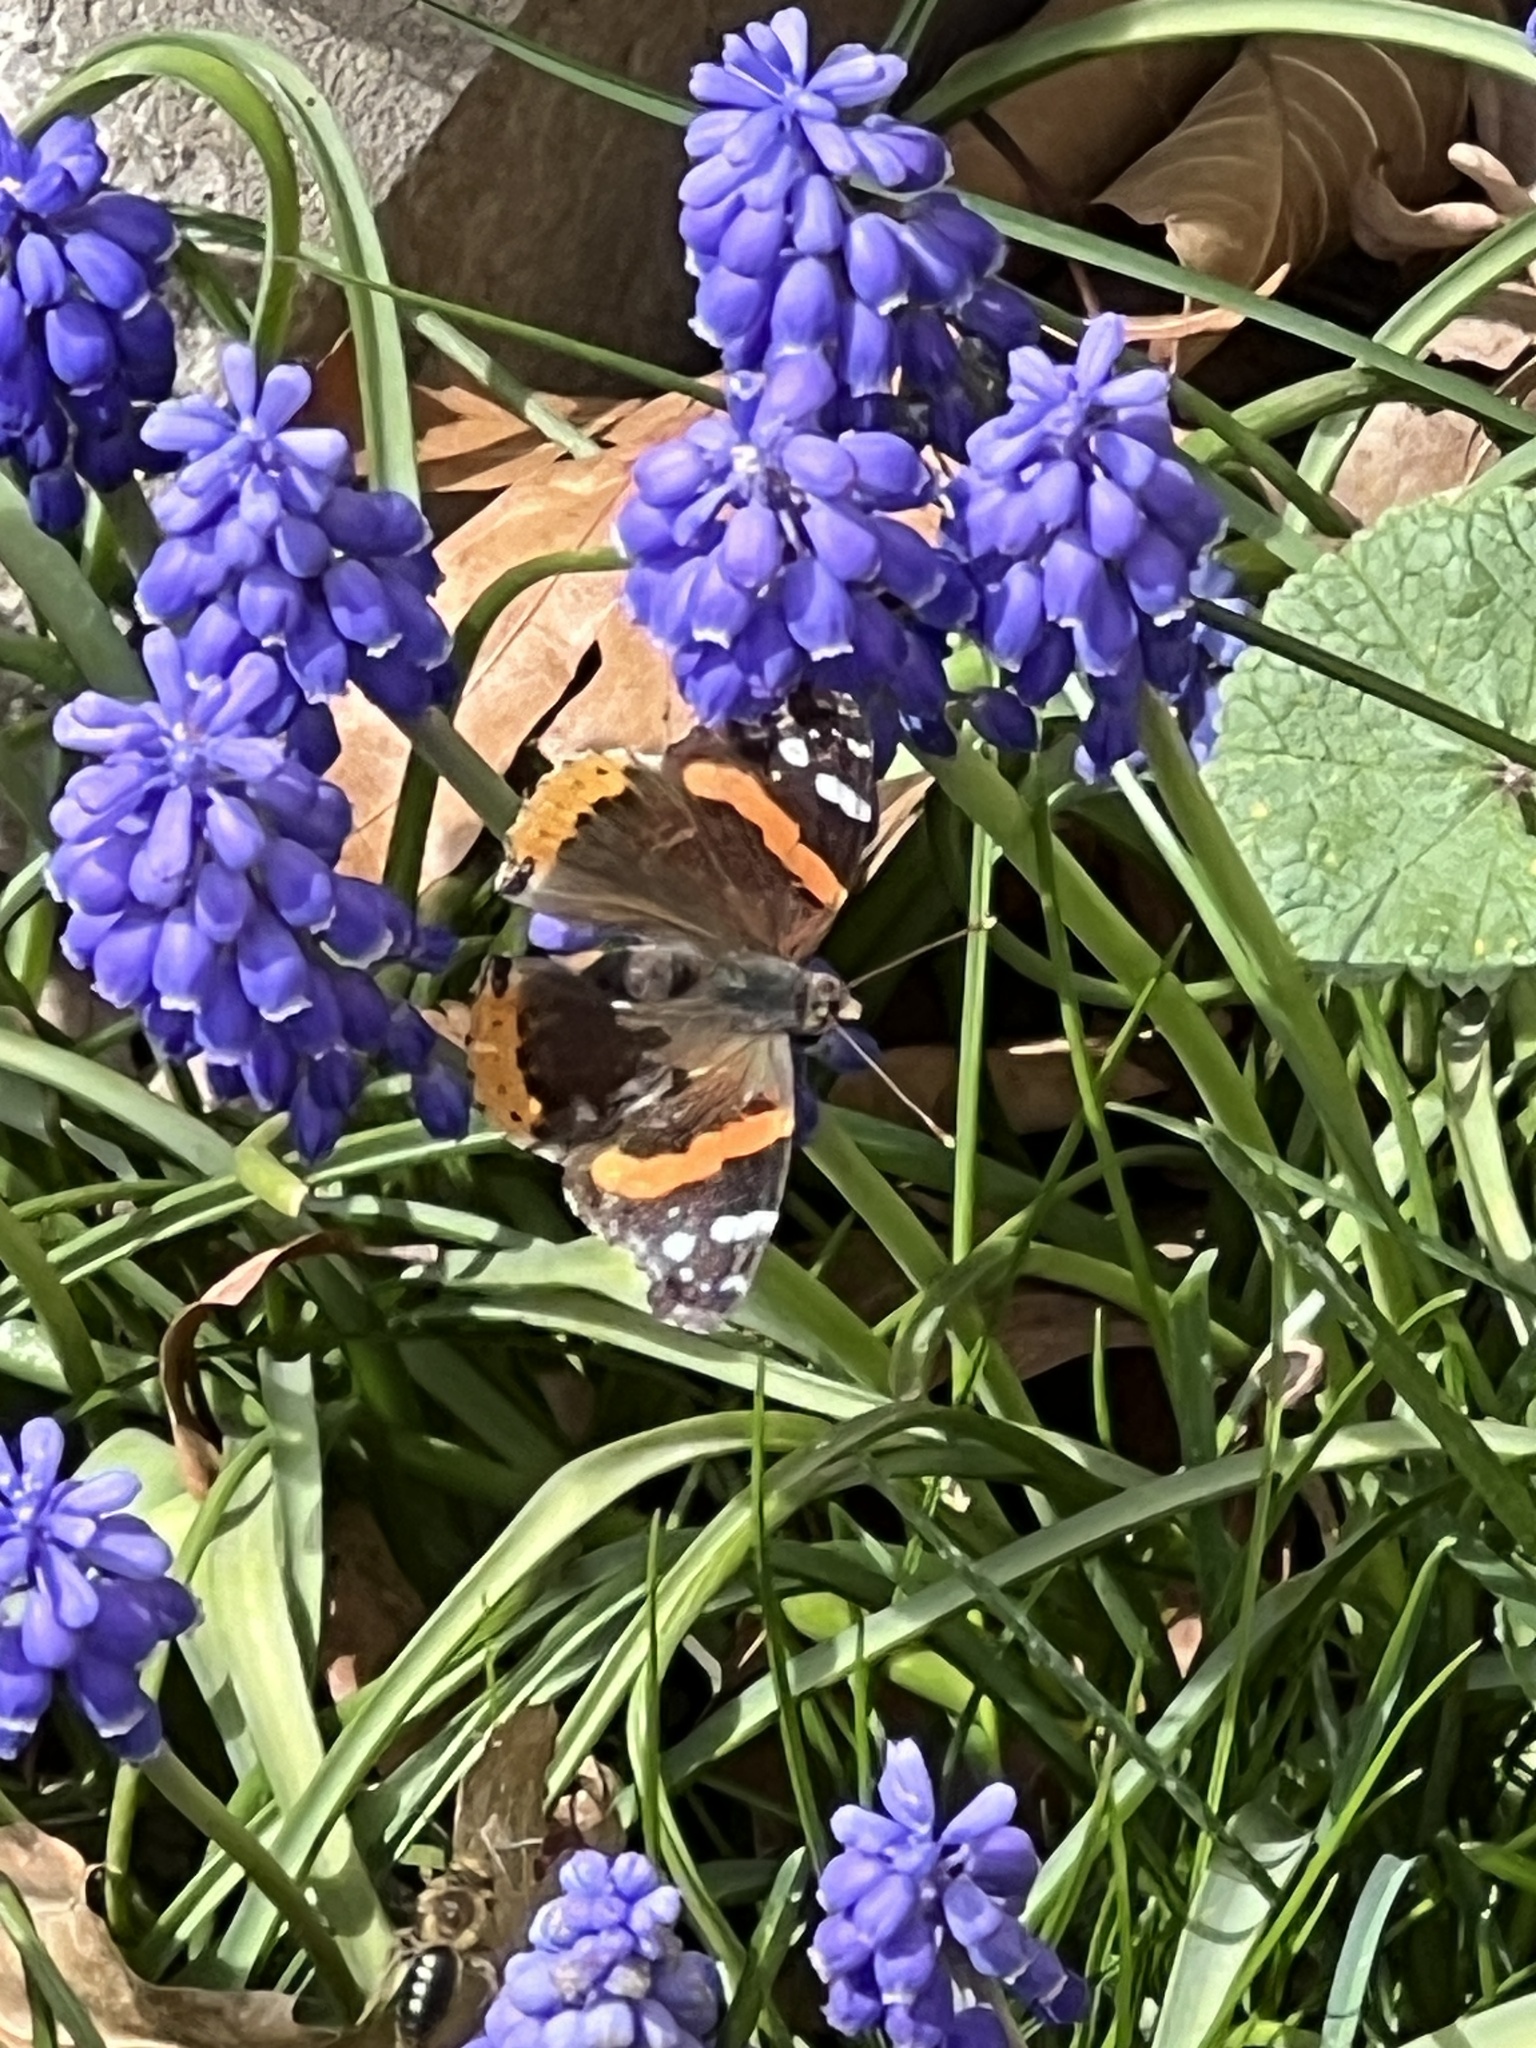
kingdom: Animalia
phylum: Arthropoda
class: Insecta
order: Lepidoptera
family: Nymphalidae
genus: Vanessa
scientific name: Vanessa atalanta
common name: Red admiral
